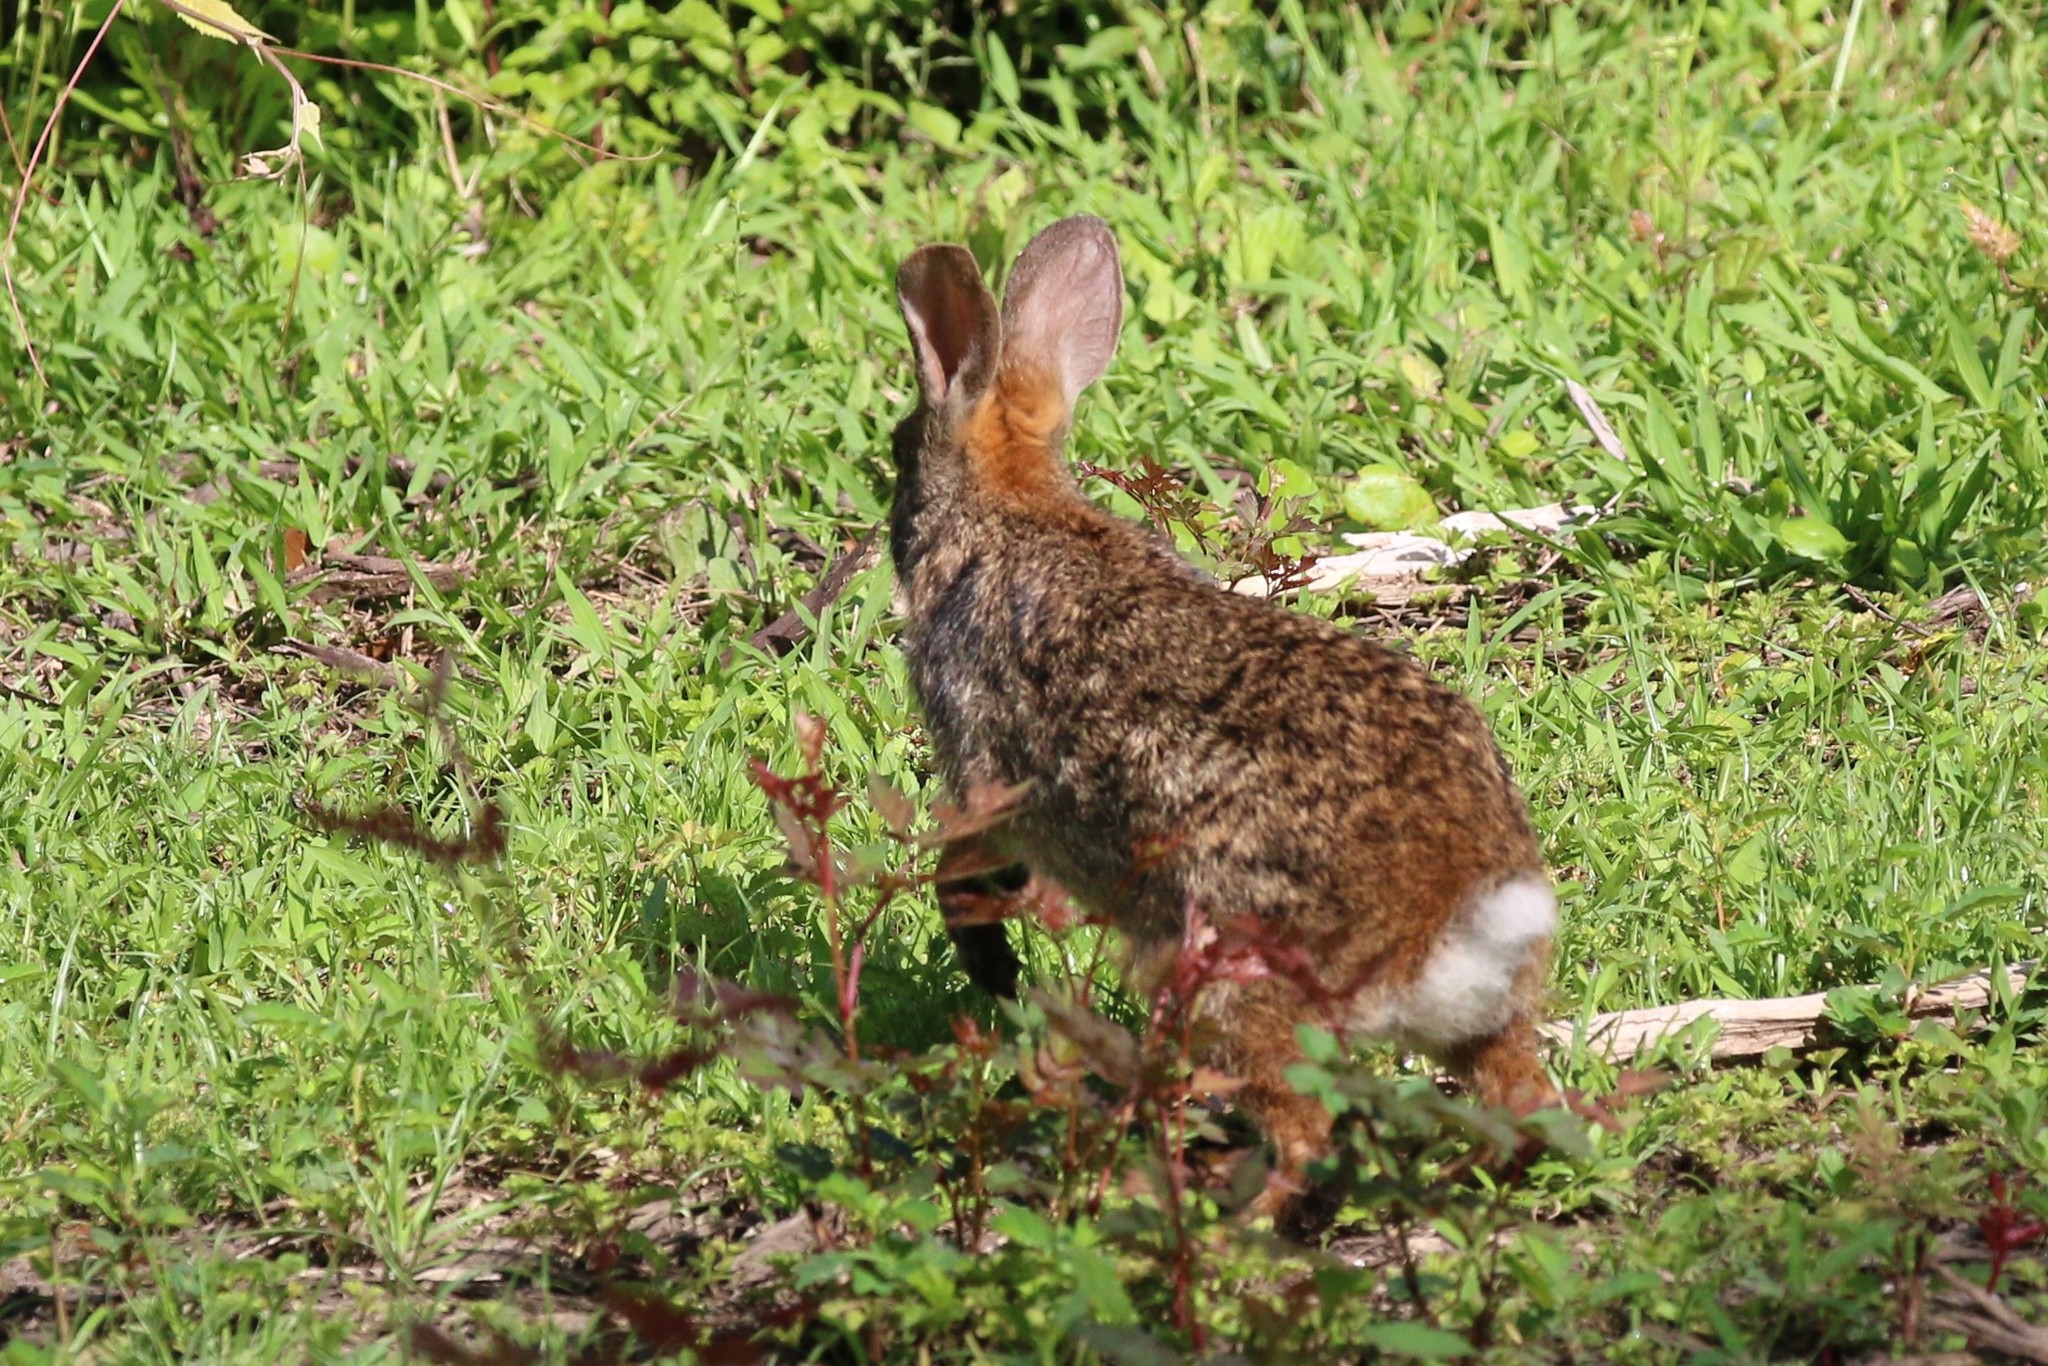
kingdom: Animalia
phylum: Chordata
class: Mammalia
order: Lagomorpha
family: Leporidae
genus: Sylvilagus
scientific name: Sylvilagus aquaticus
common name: Swamp rabbit
